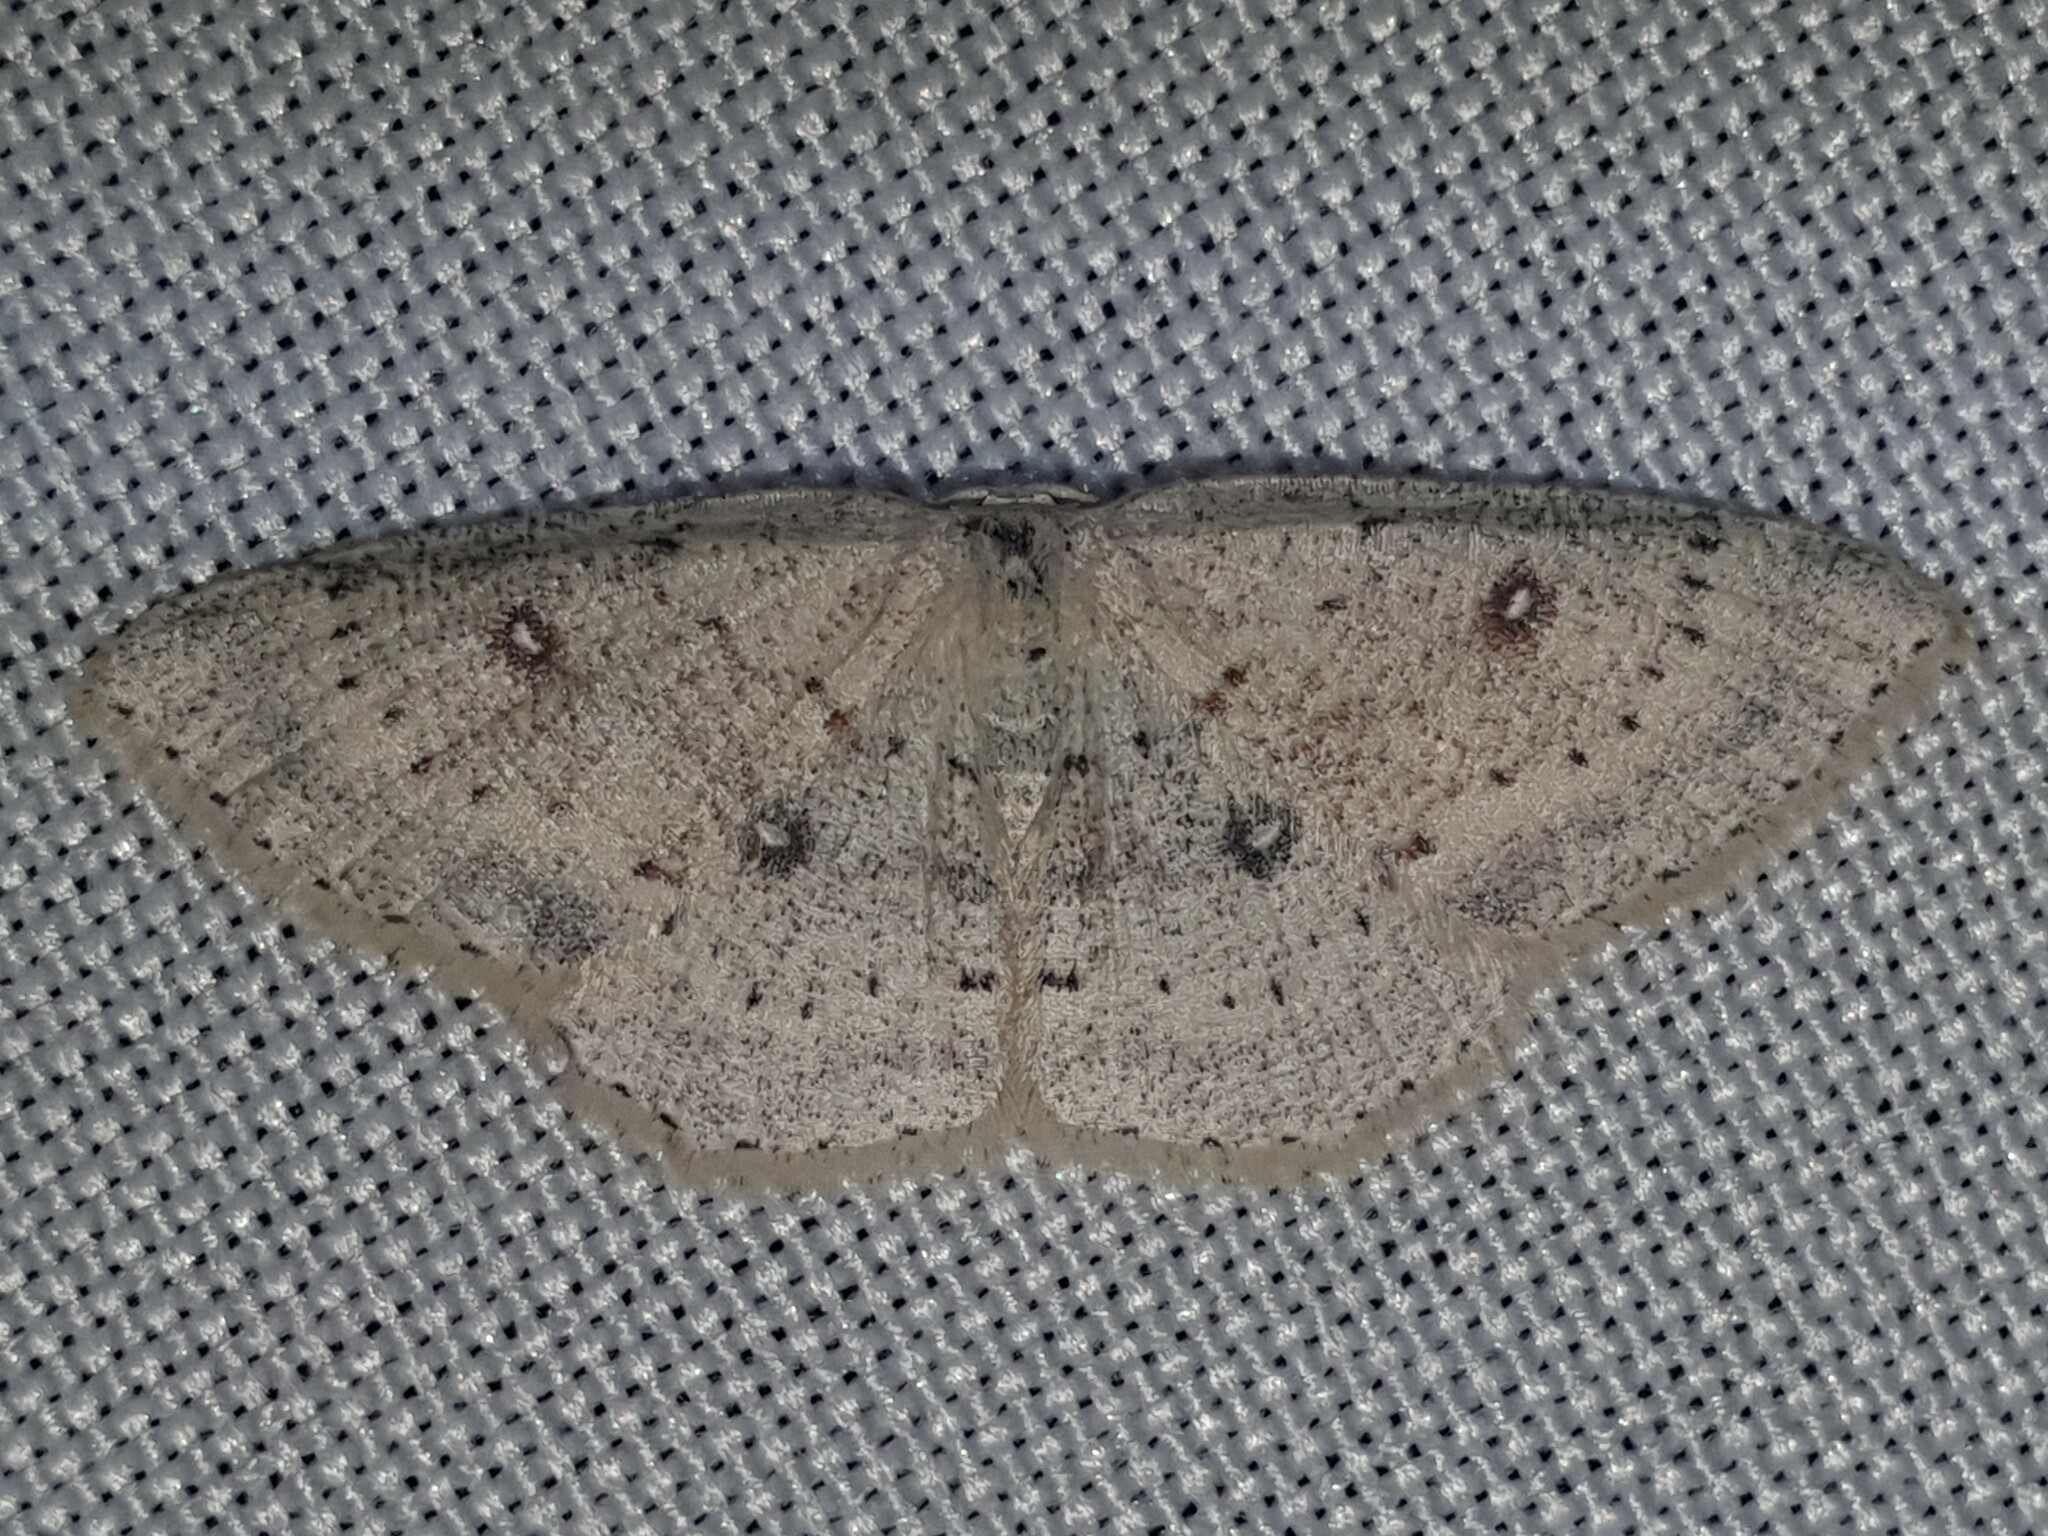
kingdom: Animalia
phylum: Arthropoda
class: Insecta
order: Lepidoptera
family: Geometridae
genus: Cyclophora
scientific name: Cyclophora albipunctata
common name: Birch mocha
